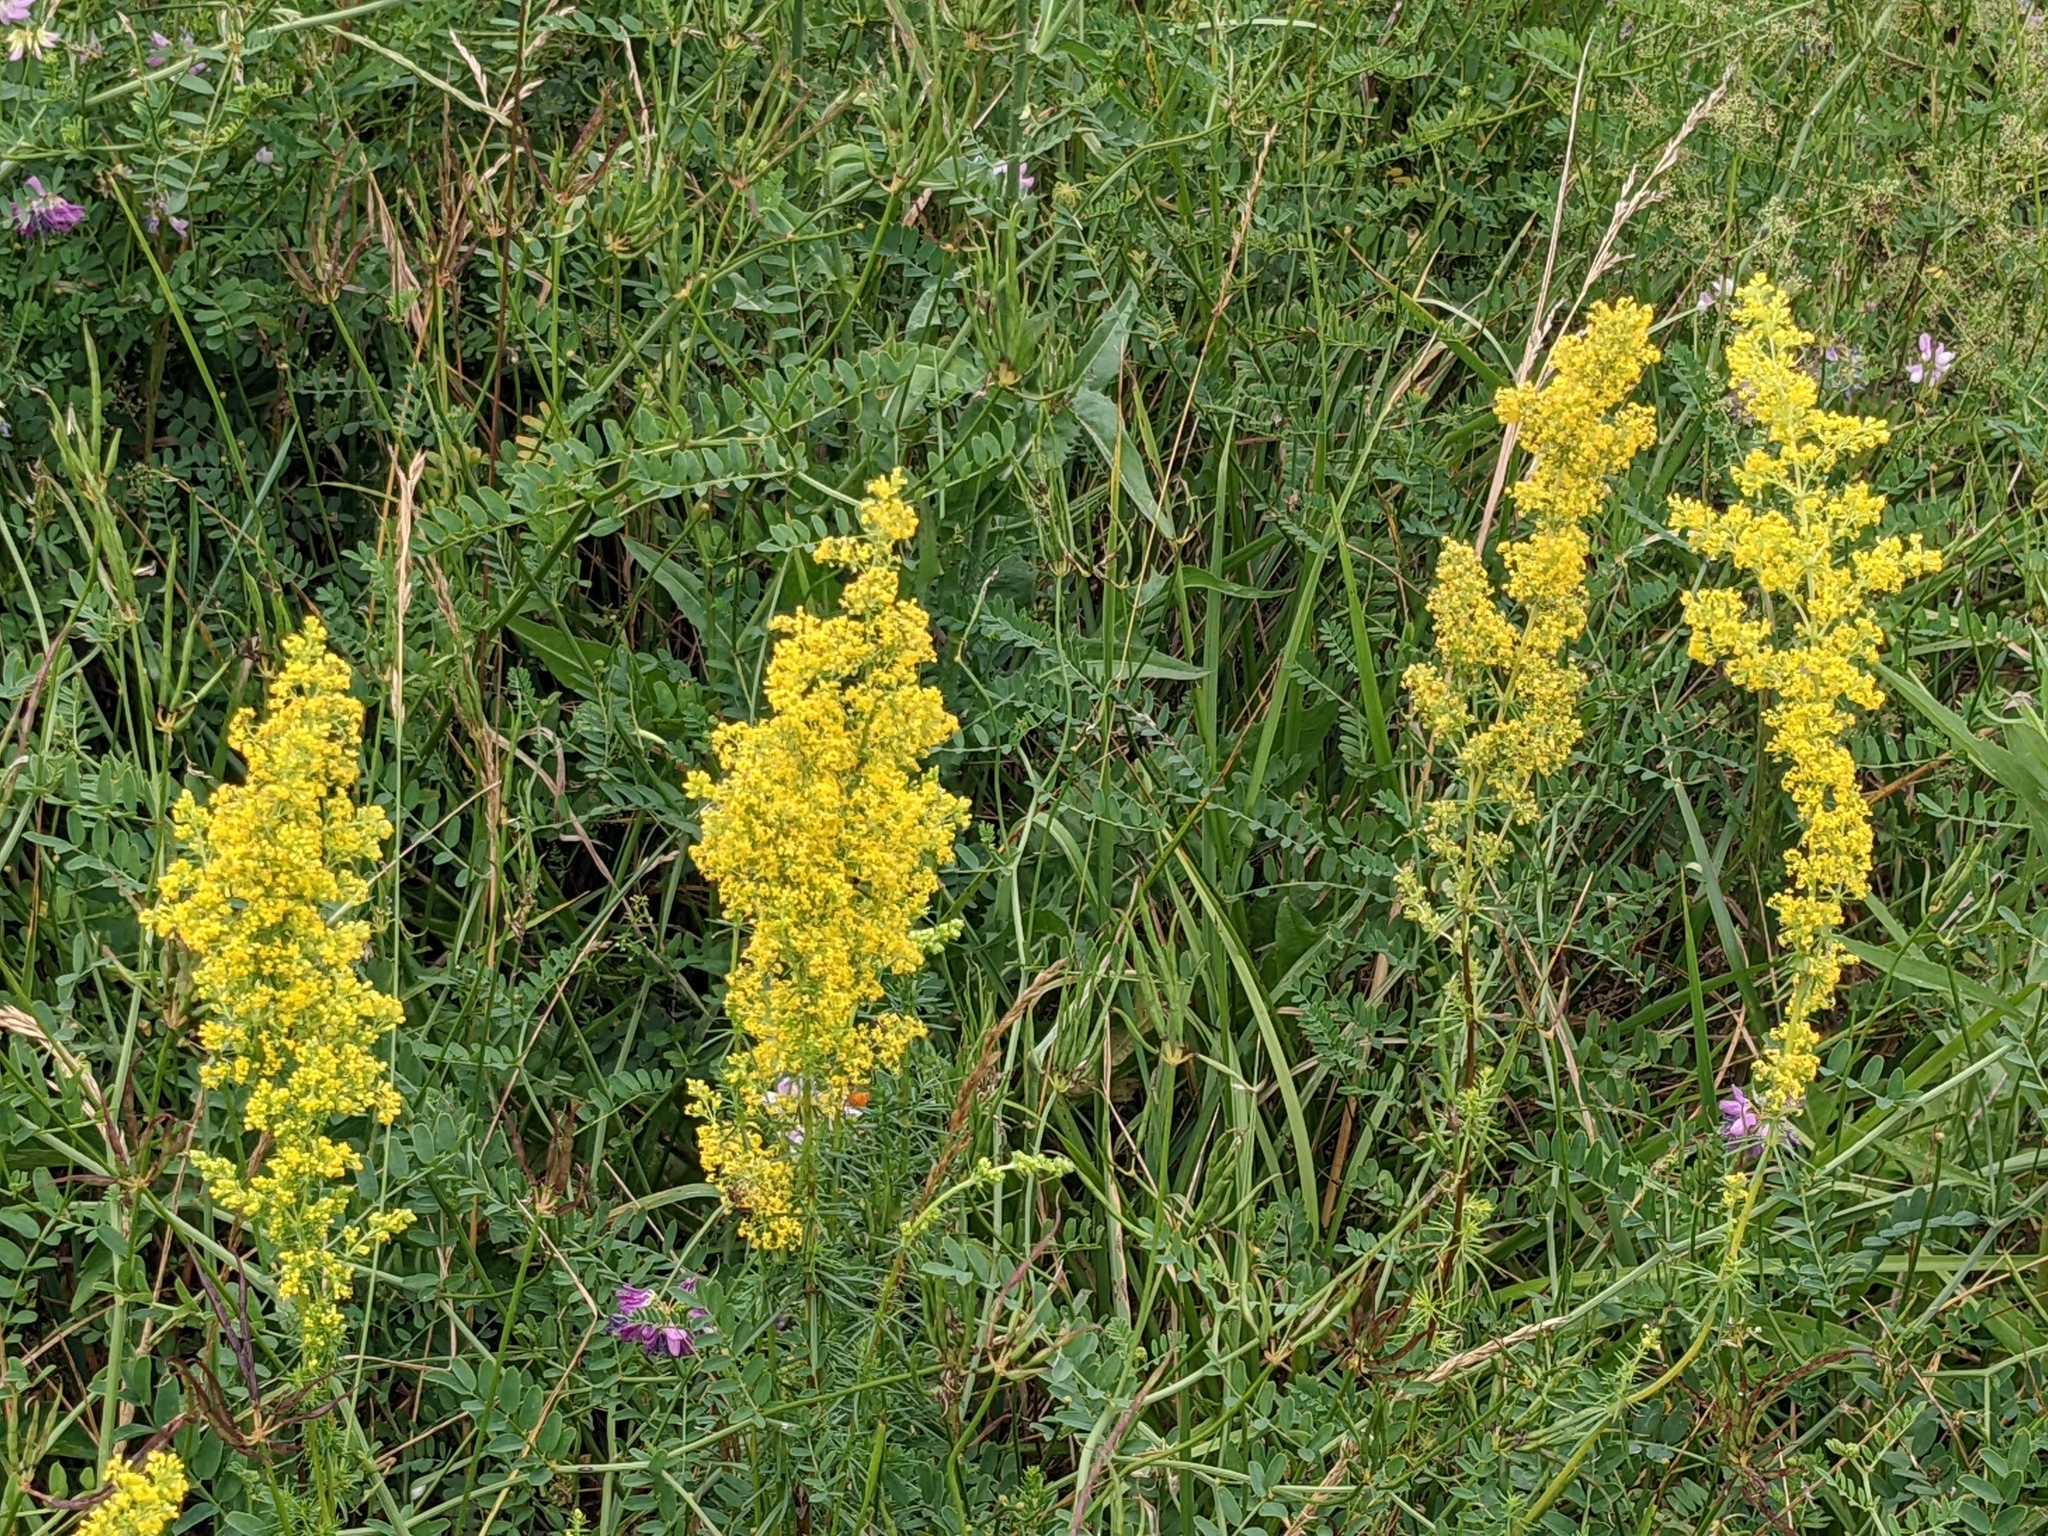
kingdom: Plantae
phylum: Tracheophyta
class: Magnoliopsida
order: Gentianales
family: Rubiaceae
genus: Galium
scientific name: Galium verum
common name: Lady's bedstraw
